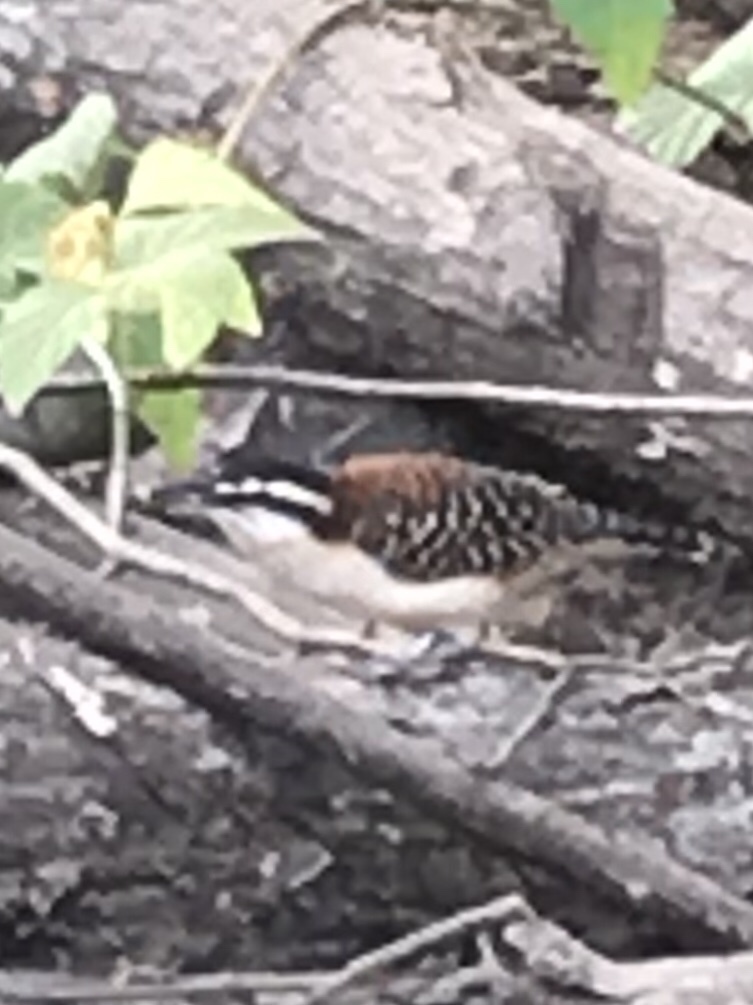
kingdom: Animalia
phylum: Chordata
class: Aves
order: Passeriformes
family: Troglodytidae
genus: Campylorhynchus
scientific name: Campylorhynchus rufinucha
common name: Rufous-naped wren
